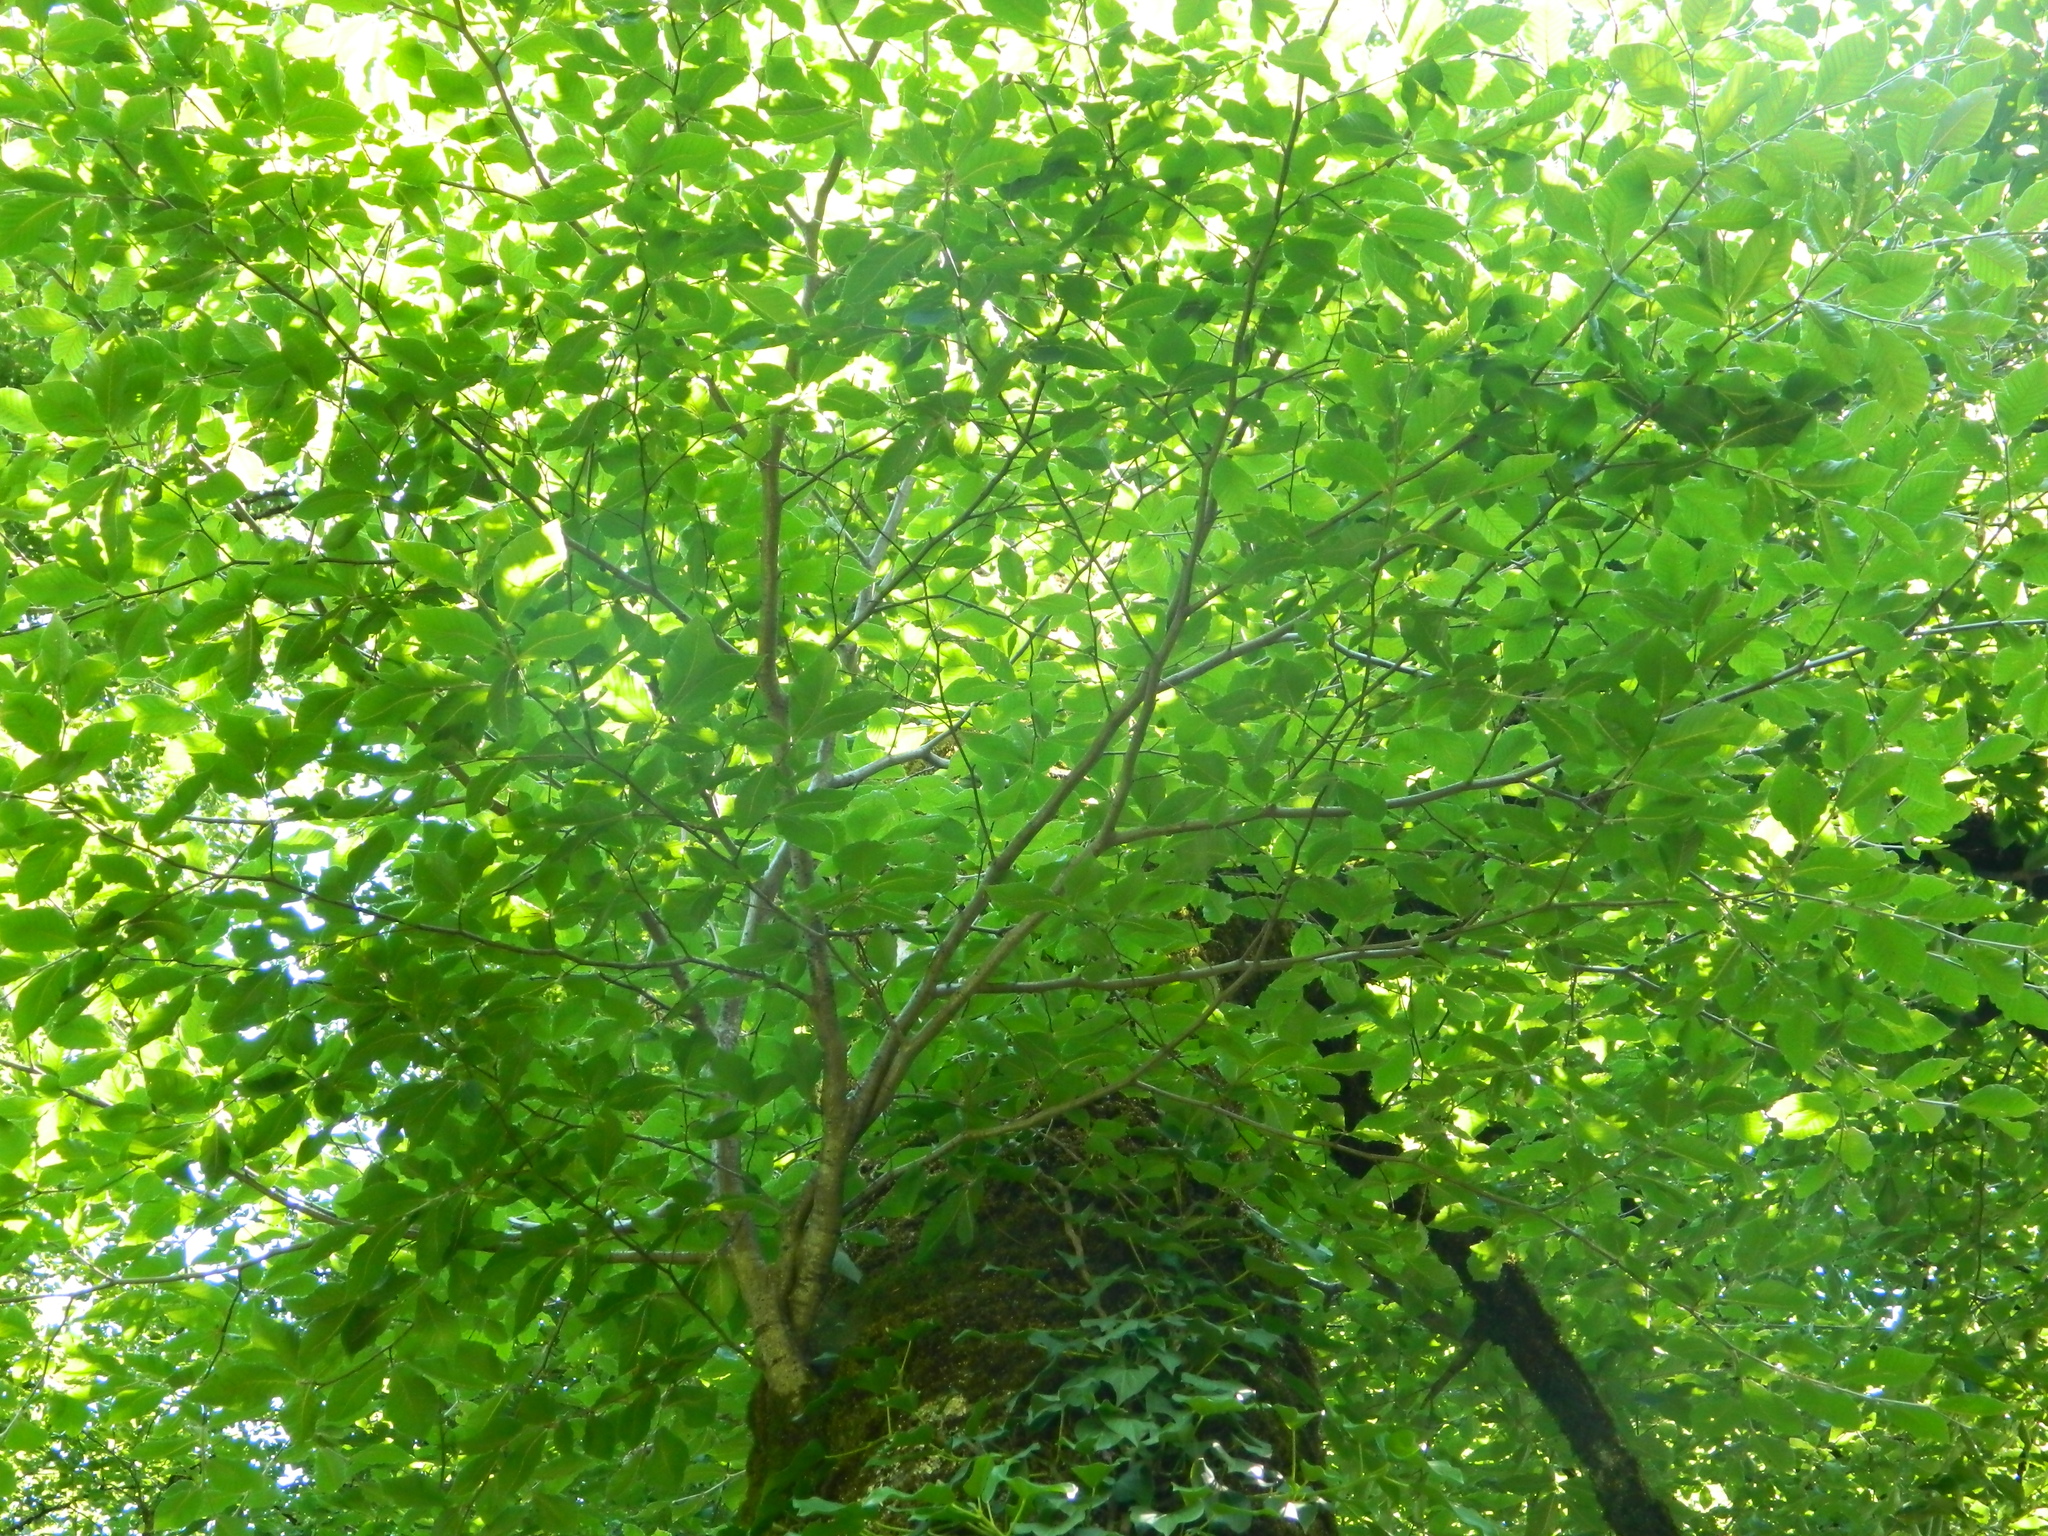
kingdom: Plantae
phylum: Tracheophyta
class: Magnoliopsida
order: Fagales
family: Fagaceae
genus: Fagus
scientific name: Fagus orientalis
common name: Oriental beech
